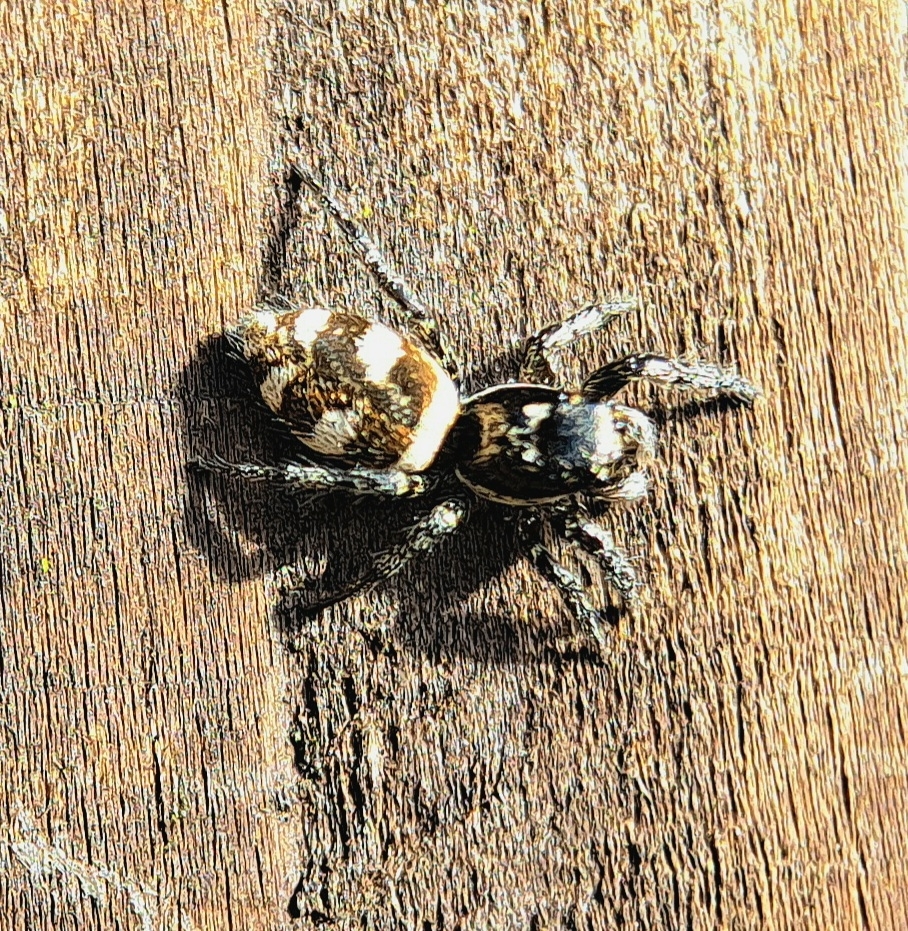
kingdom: Animalia
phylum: Arthropoda
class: Arachnida
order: Araneae
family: Salticidae
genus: Salticus
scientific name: Salticus scenicus
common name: Zebra jumper
